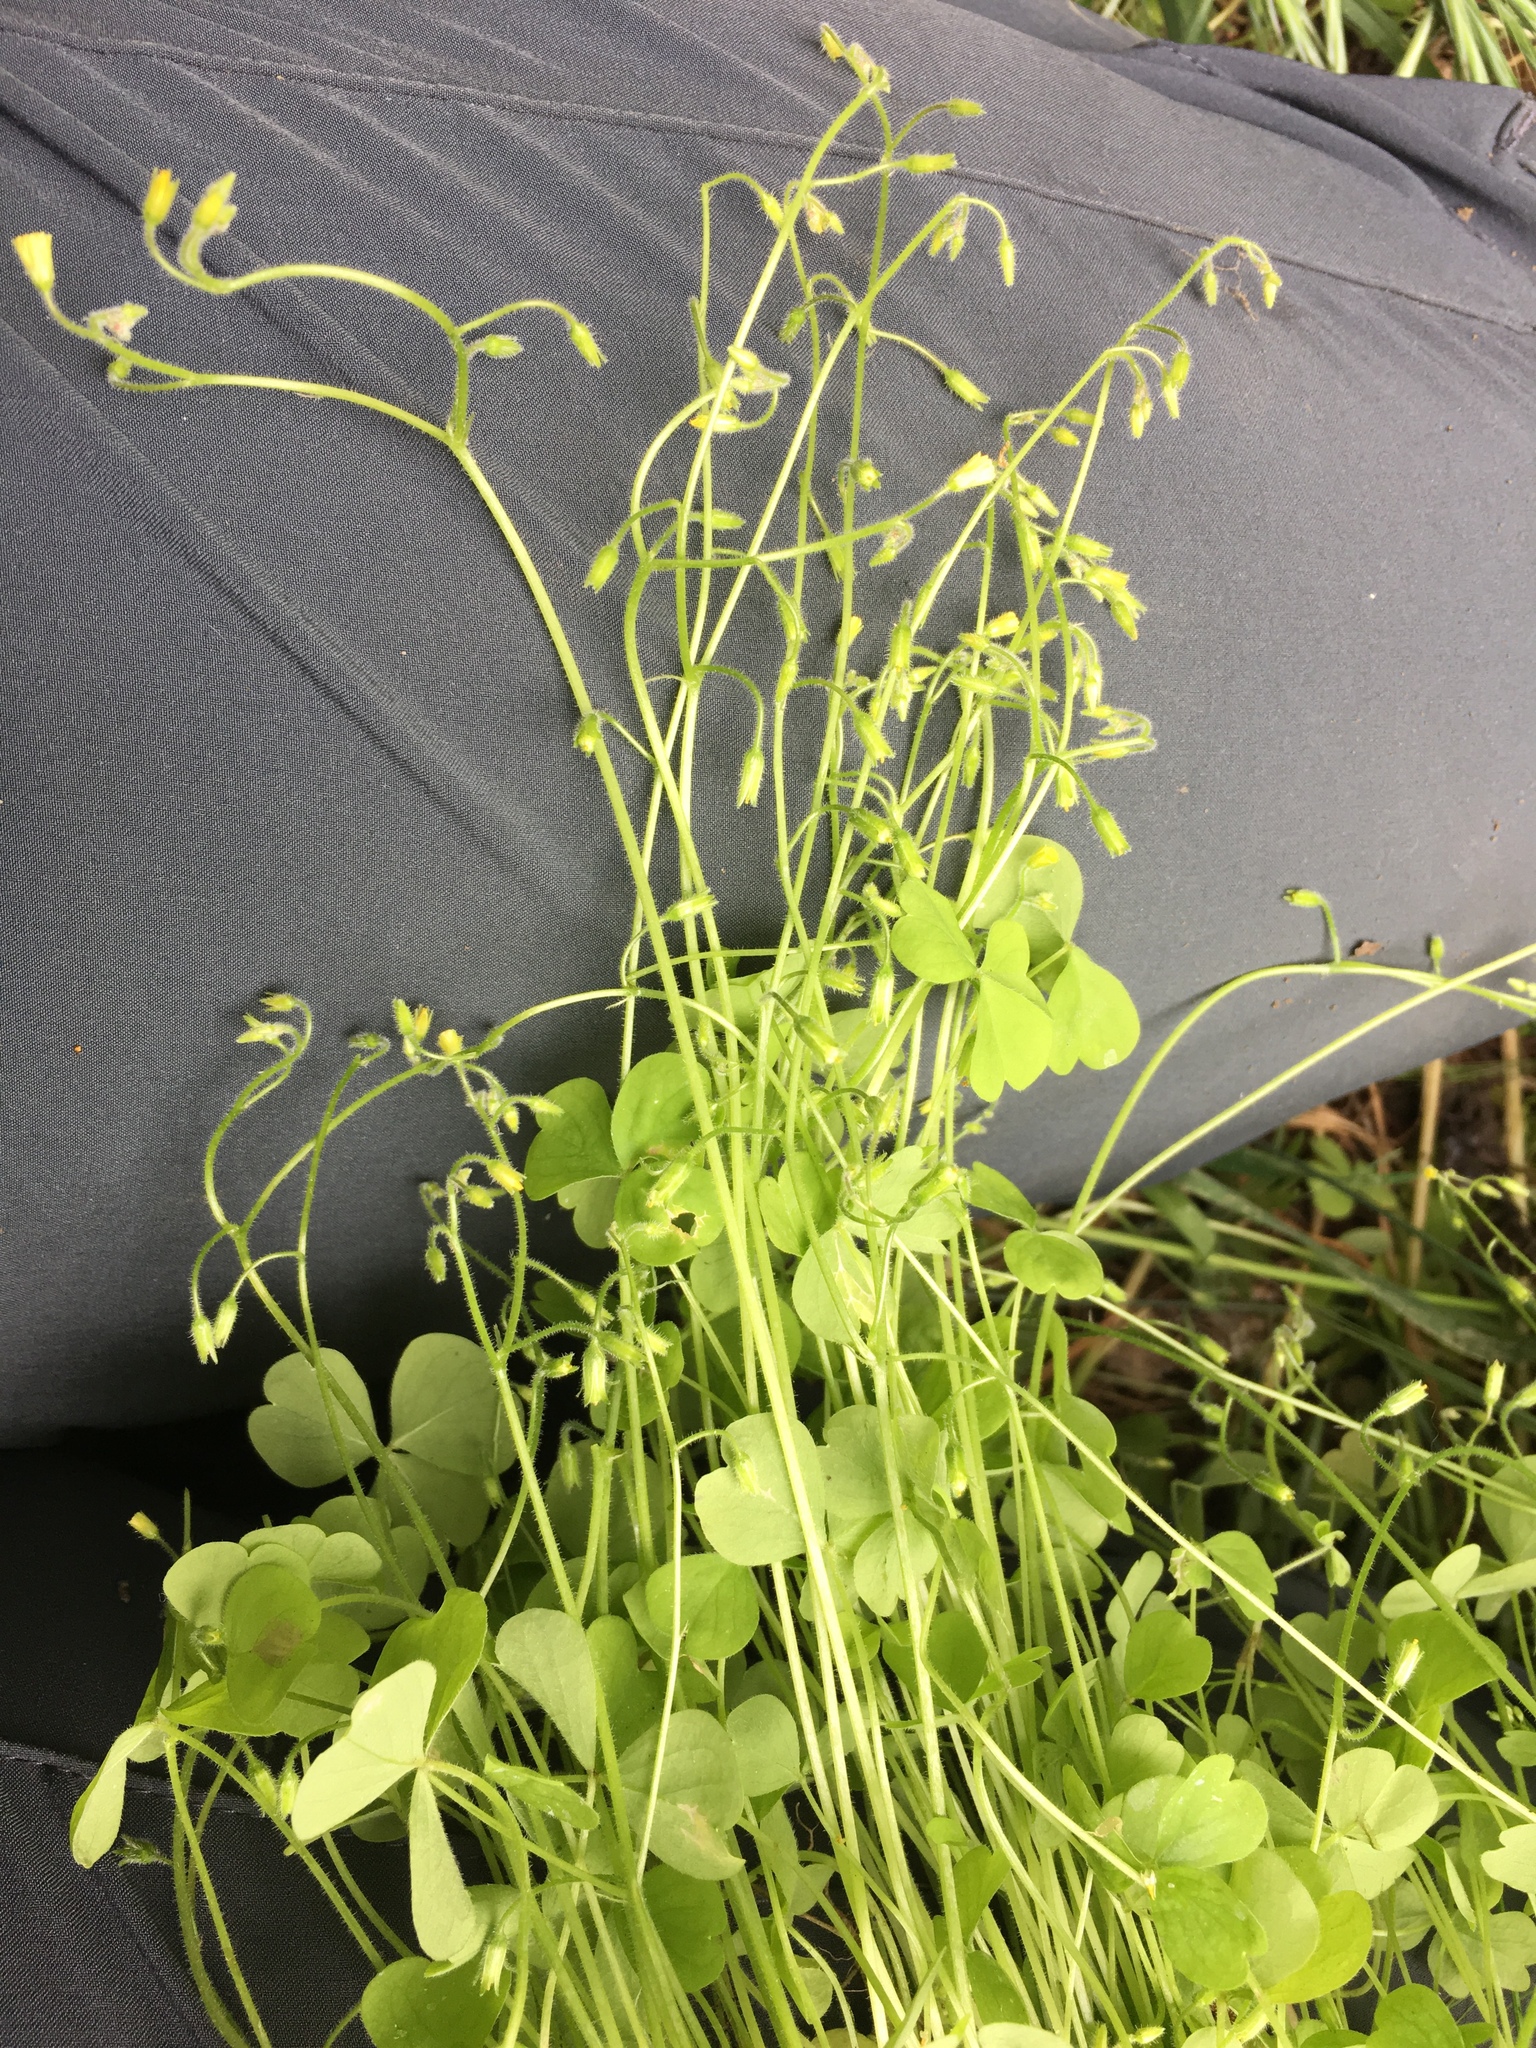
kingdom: Plantae
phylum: Tracheophyta
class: Magnoliopsida
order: Oxalidales
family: Oxalidaceae
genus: Oxalis
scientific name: Oxalis laxa
